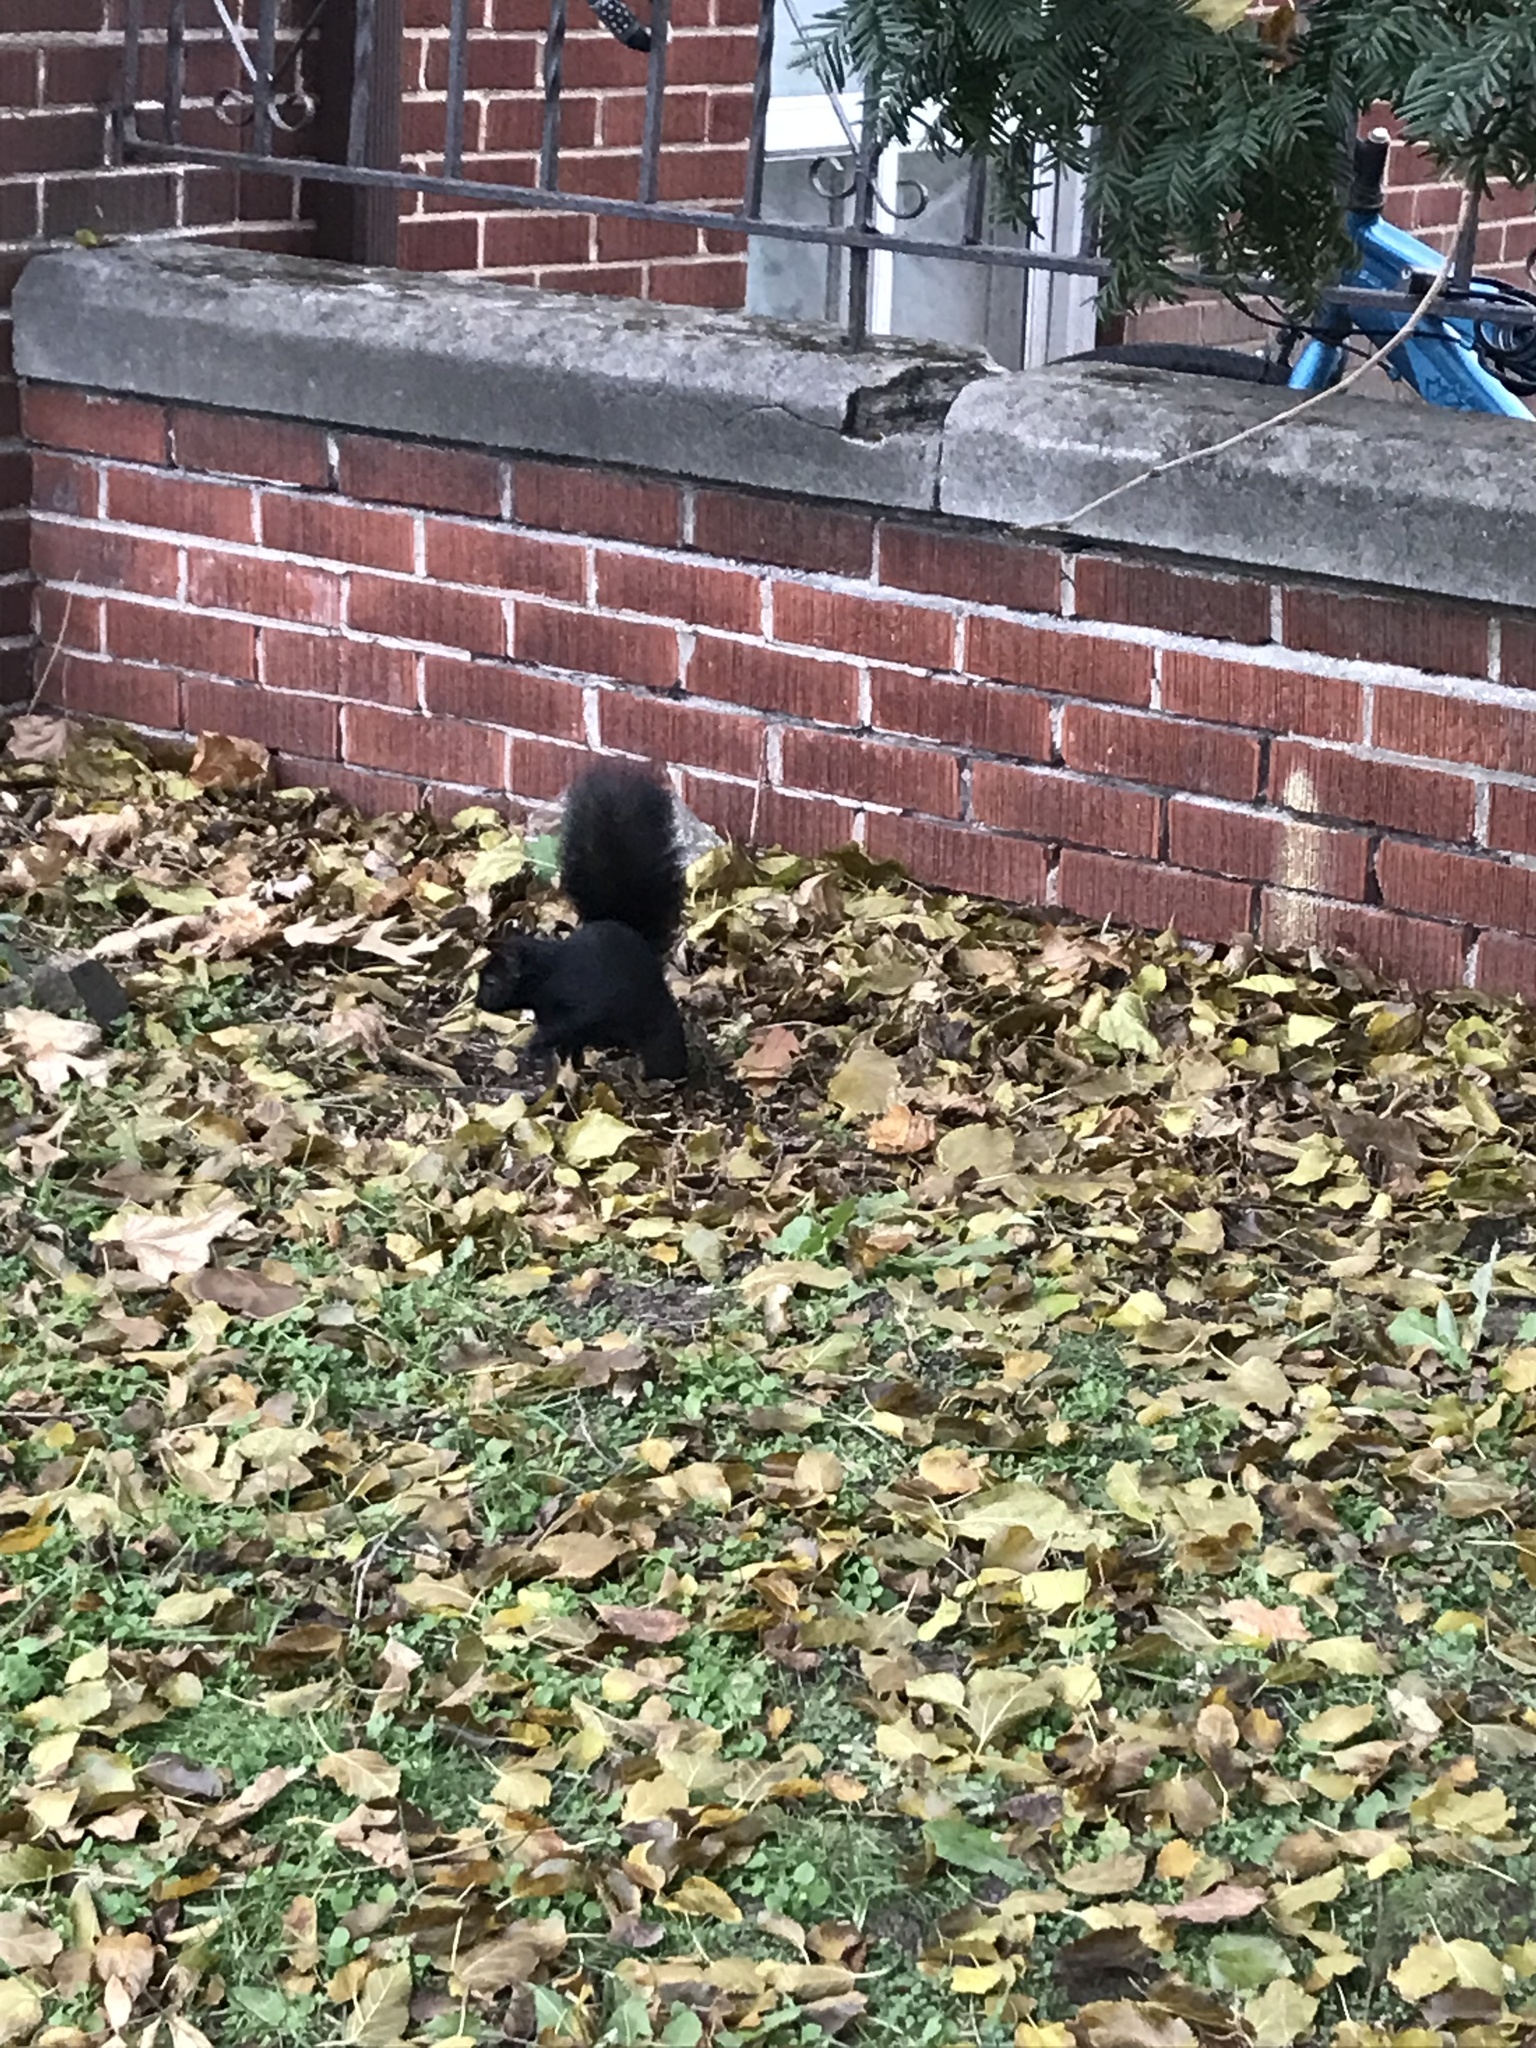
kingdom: Animalia
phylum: Chordata
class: Mammalia
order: Rodentia
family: Sciuridae
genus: Sciurus
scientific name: Sciurus carolinensis
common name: Eastern gray squirrel
